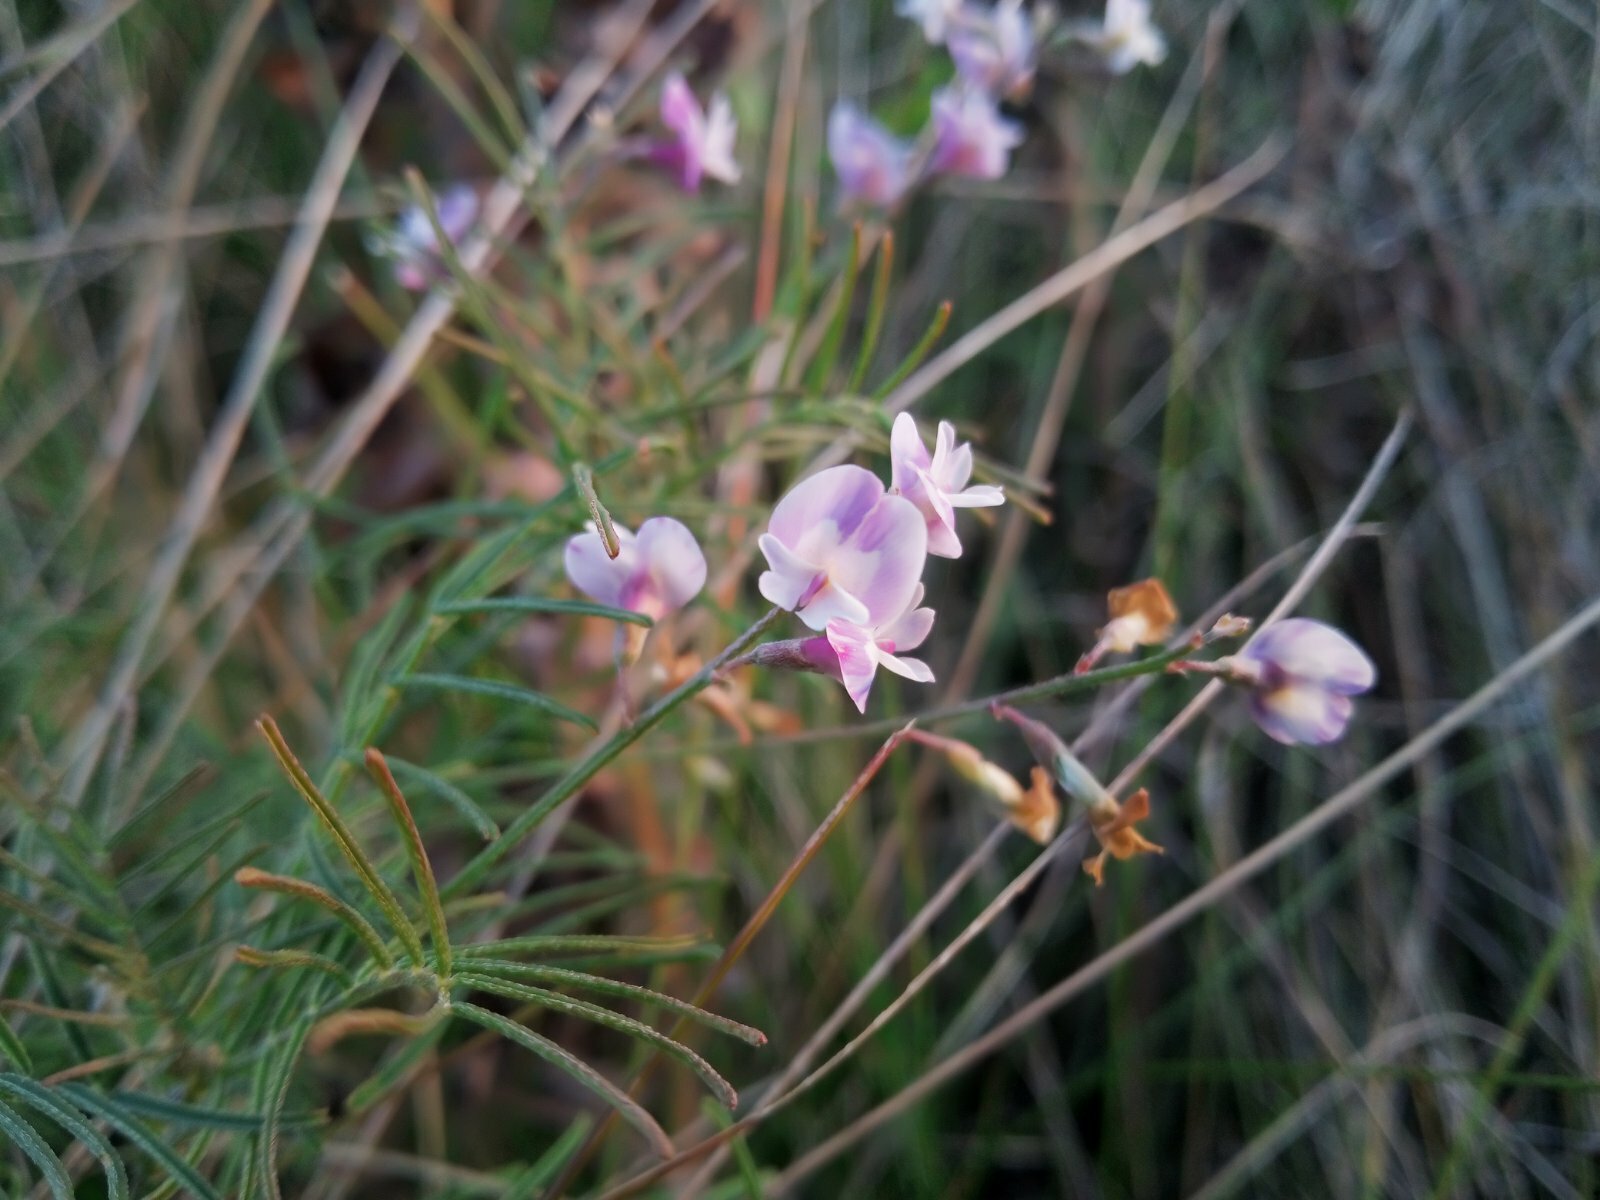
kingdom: Plantae
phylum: Tracheophyta
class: Magnoliopsida
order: Fabales
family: Fabaceae
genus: Astragalus
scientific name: Astragalus austriacus
